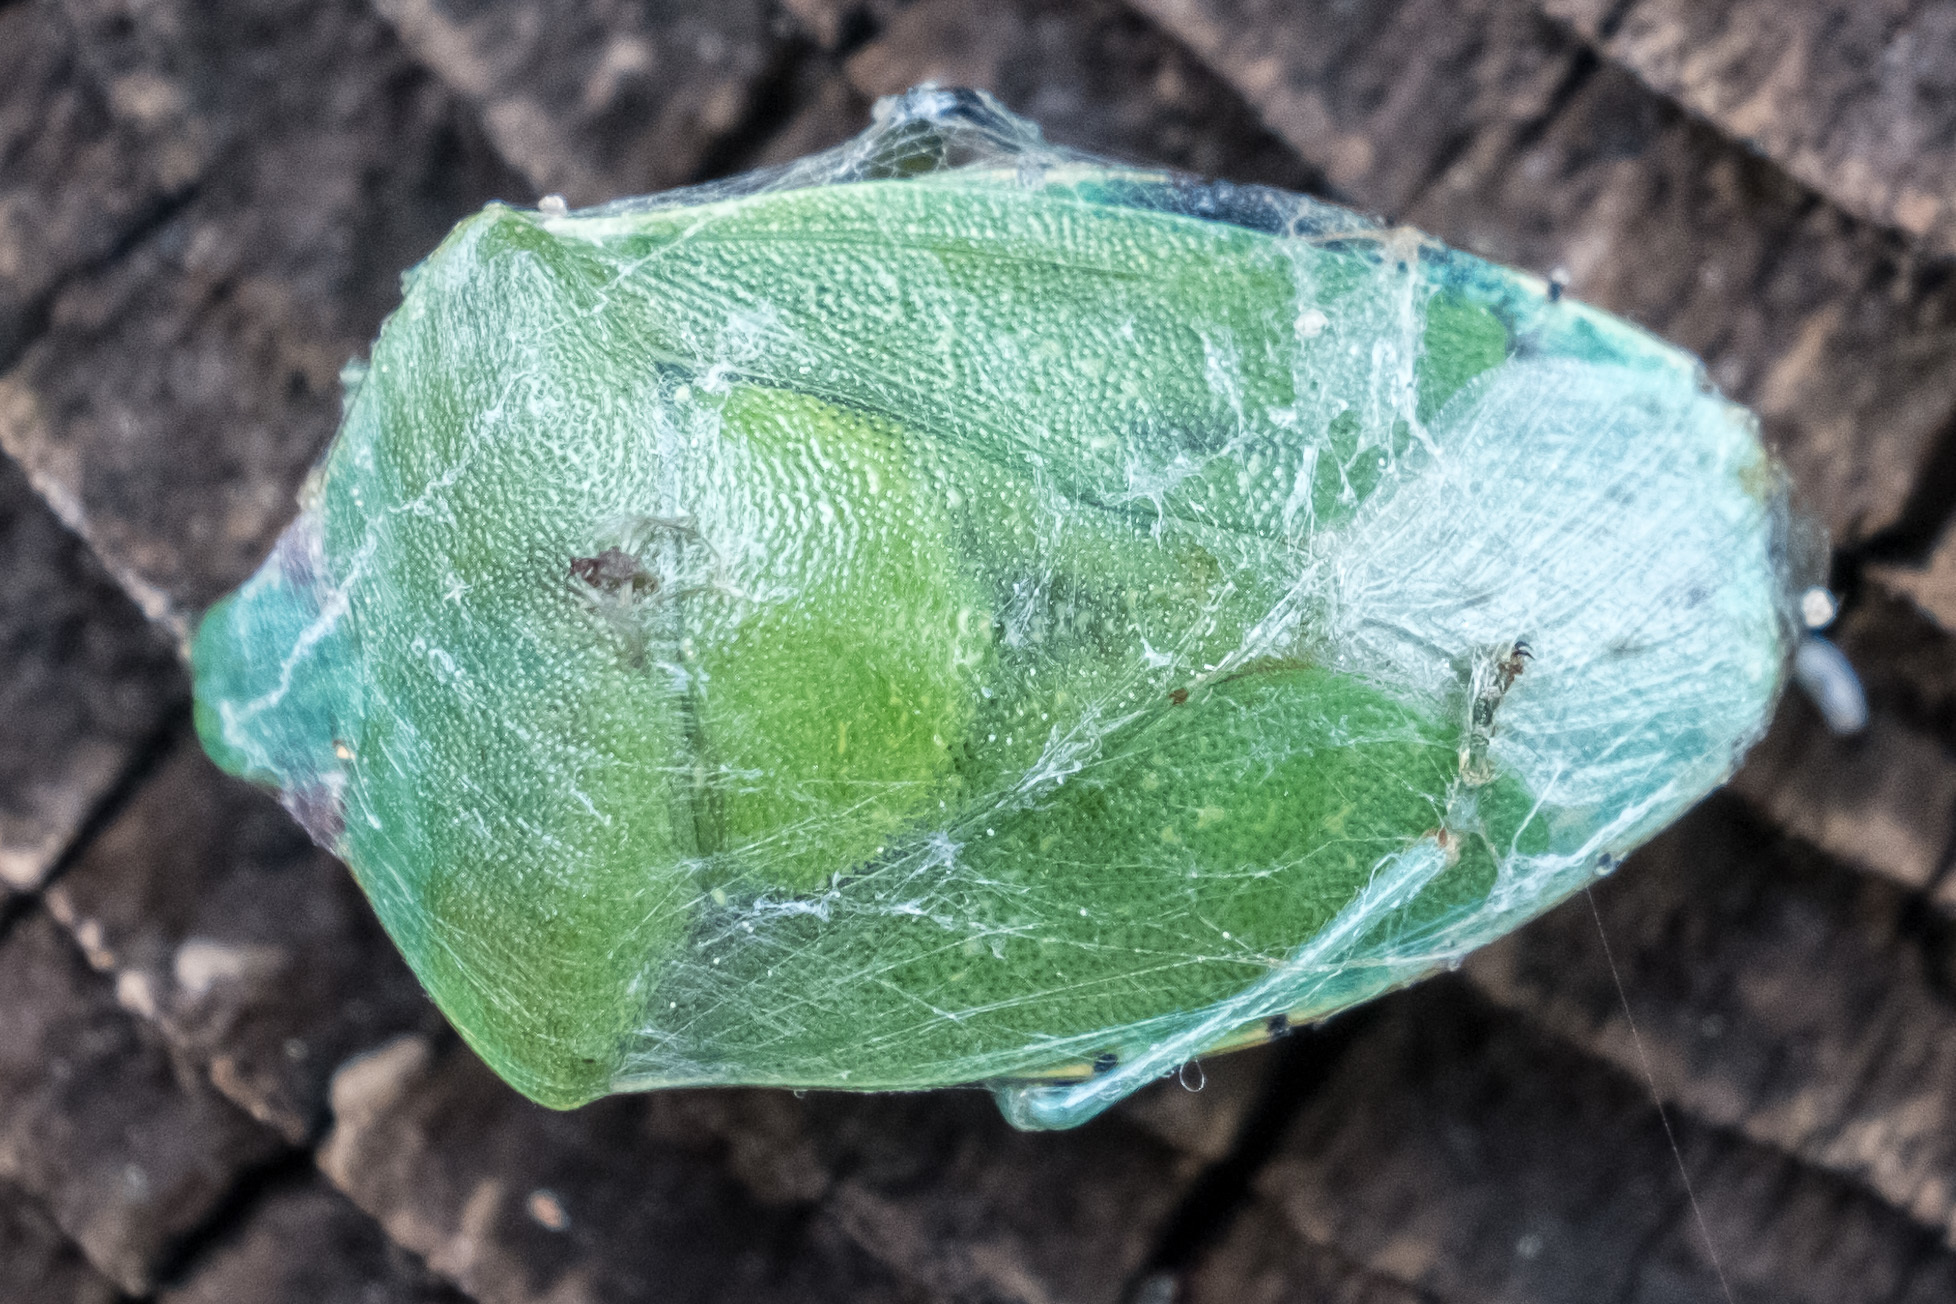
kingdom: Animalia
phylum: Arthropoda
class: Insecta
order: Hemiptera
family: Pentatomidae
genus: Chinavia
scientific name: Chinavia hilaris
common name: Green stink bug
